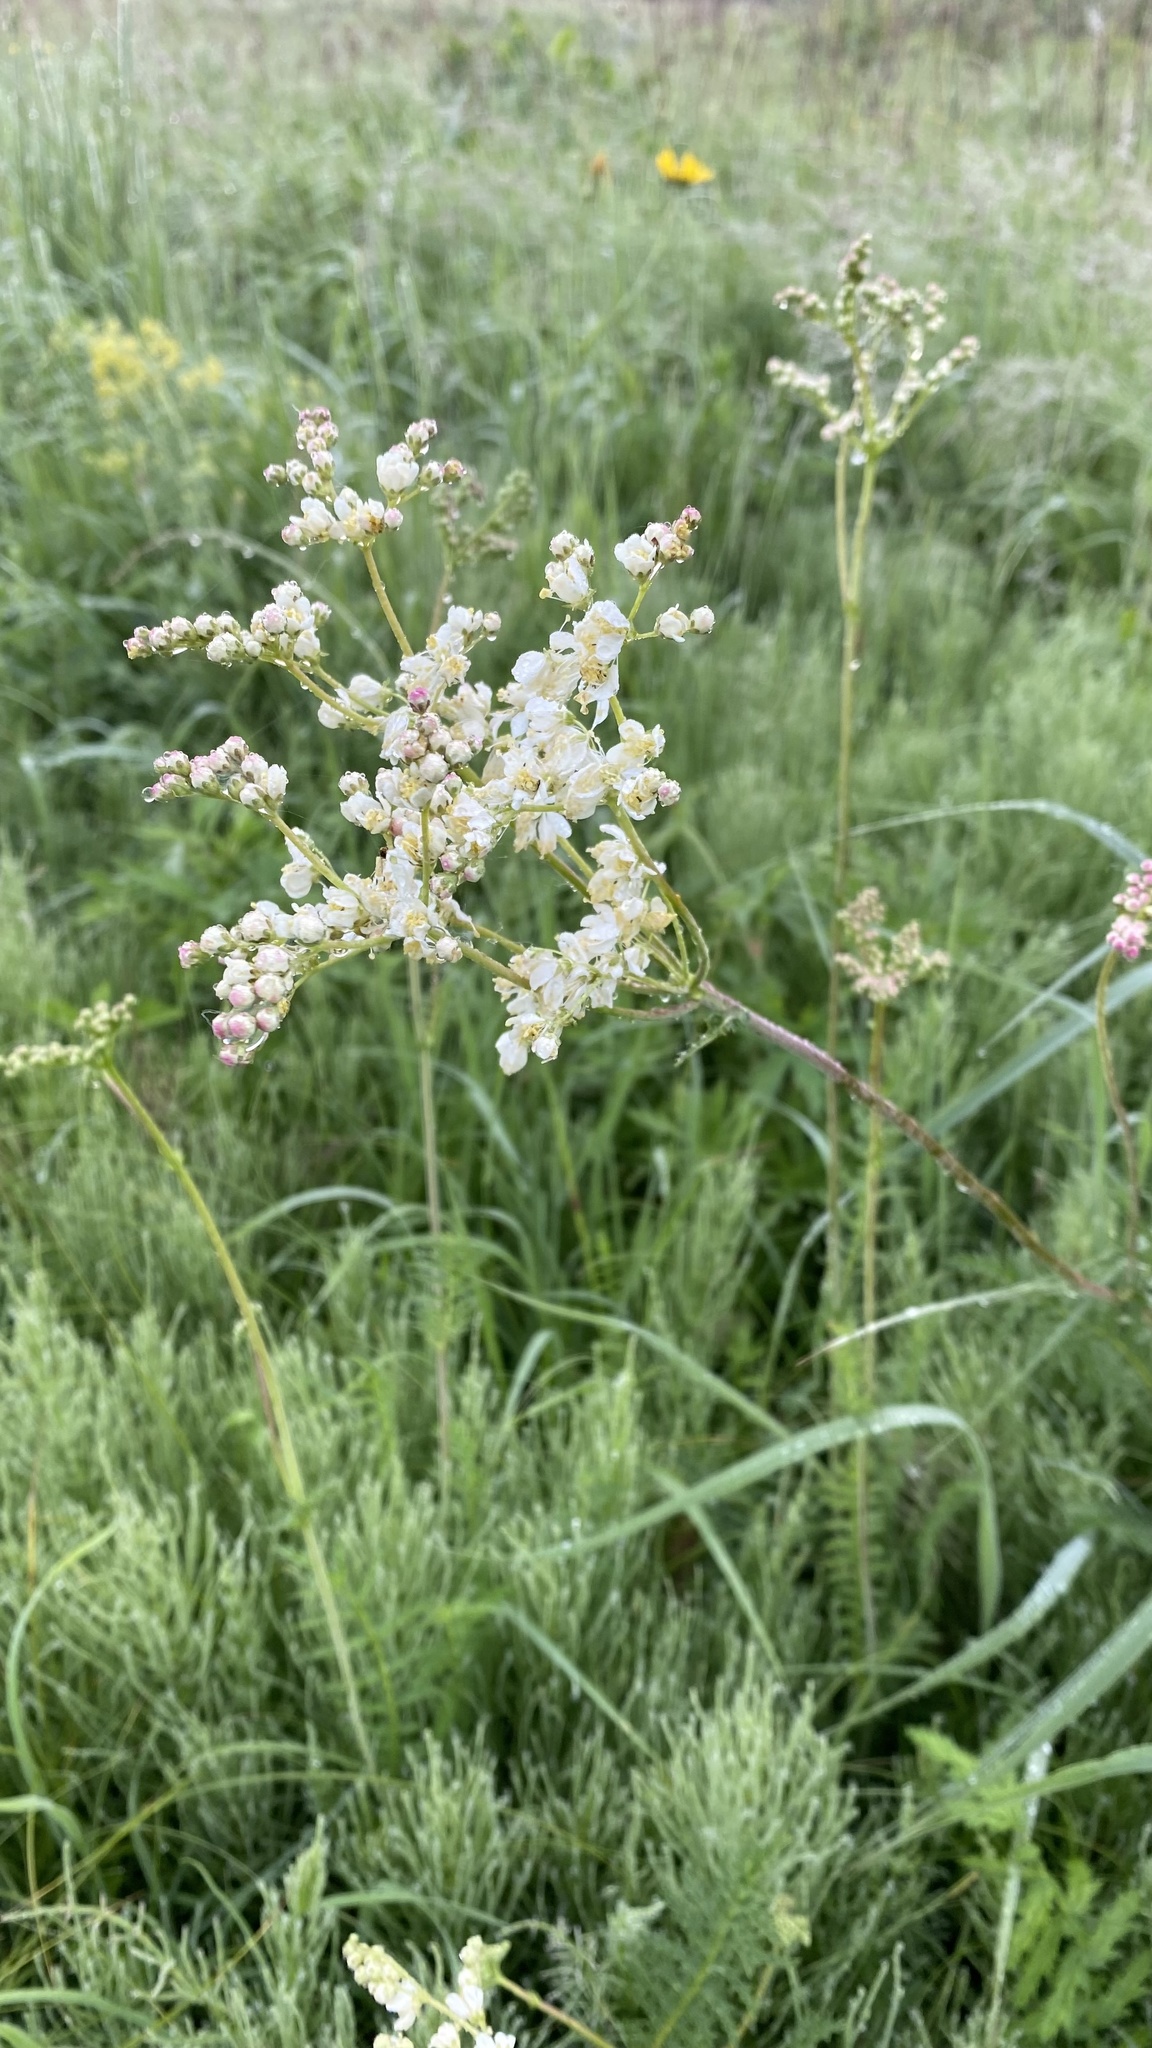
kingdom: Plantae
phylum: Tracheophyta
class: Magnoliopsida
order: Rosales
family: Rosaceae
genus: Filipendula
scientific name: Filipendula vulgaris
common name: Dropwort
